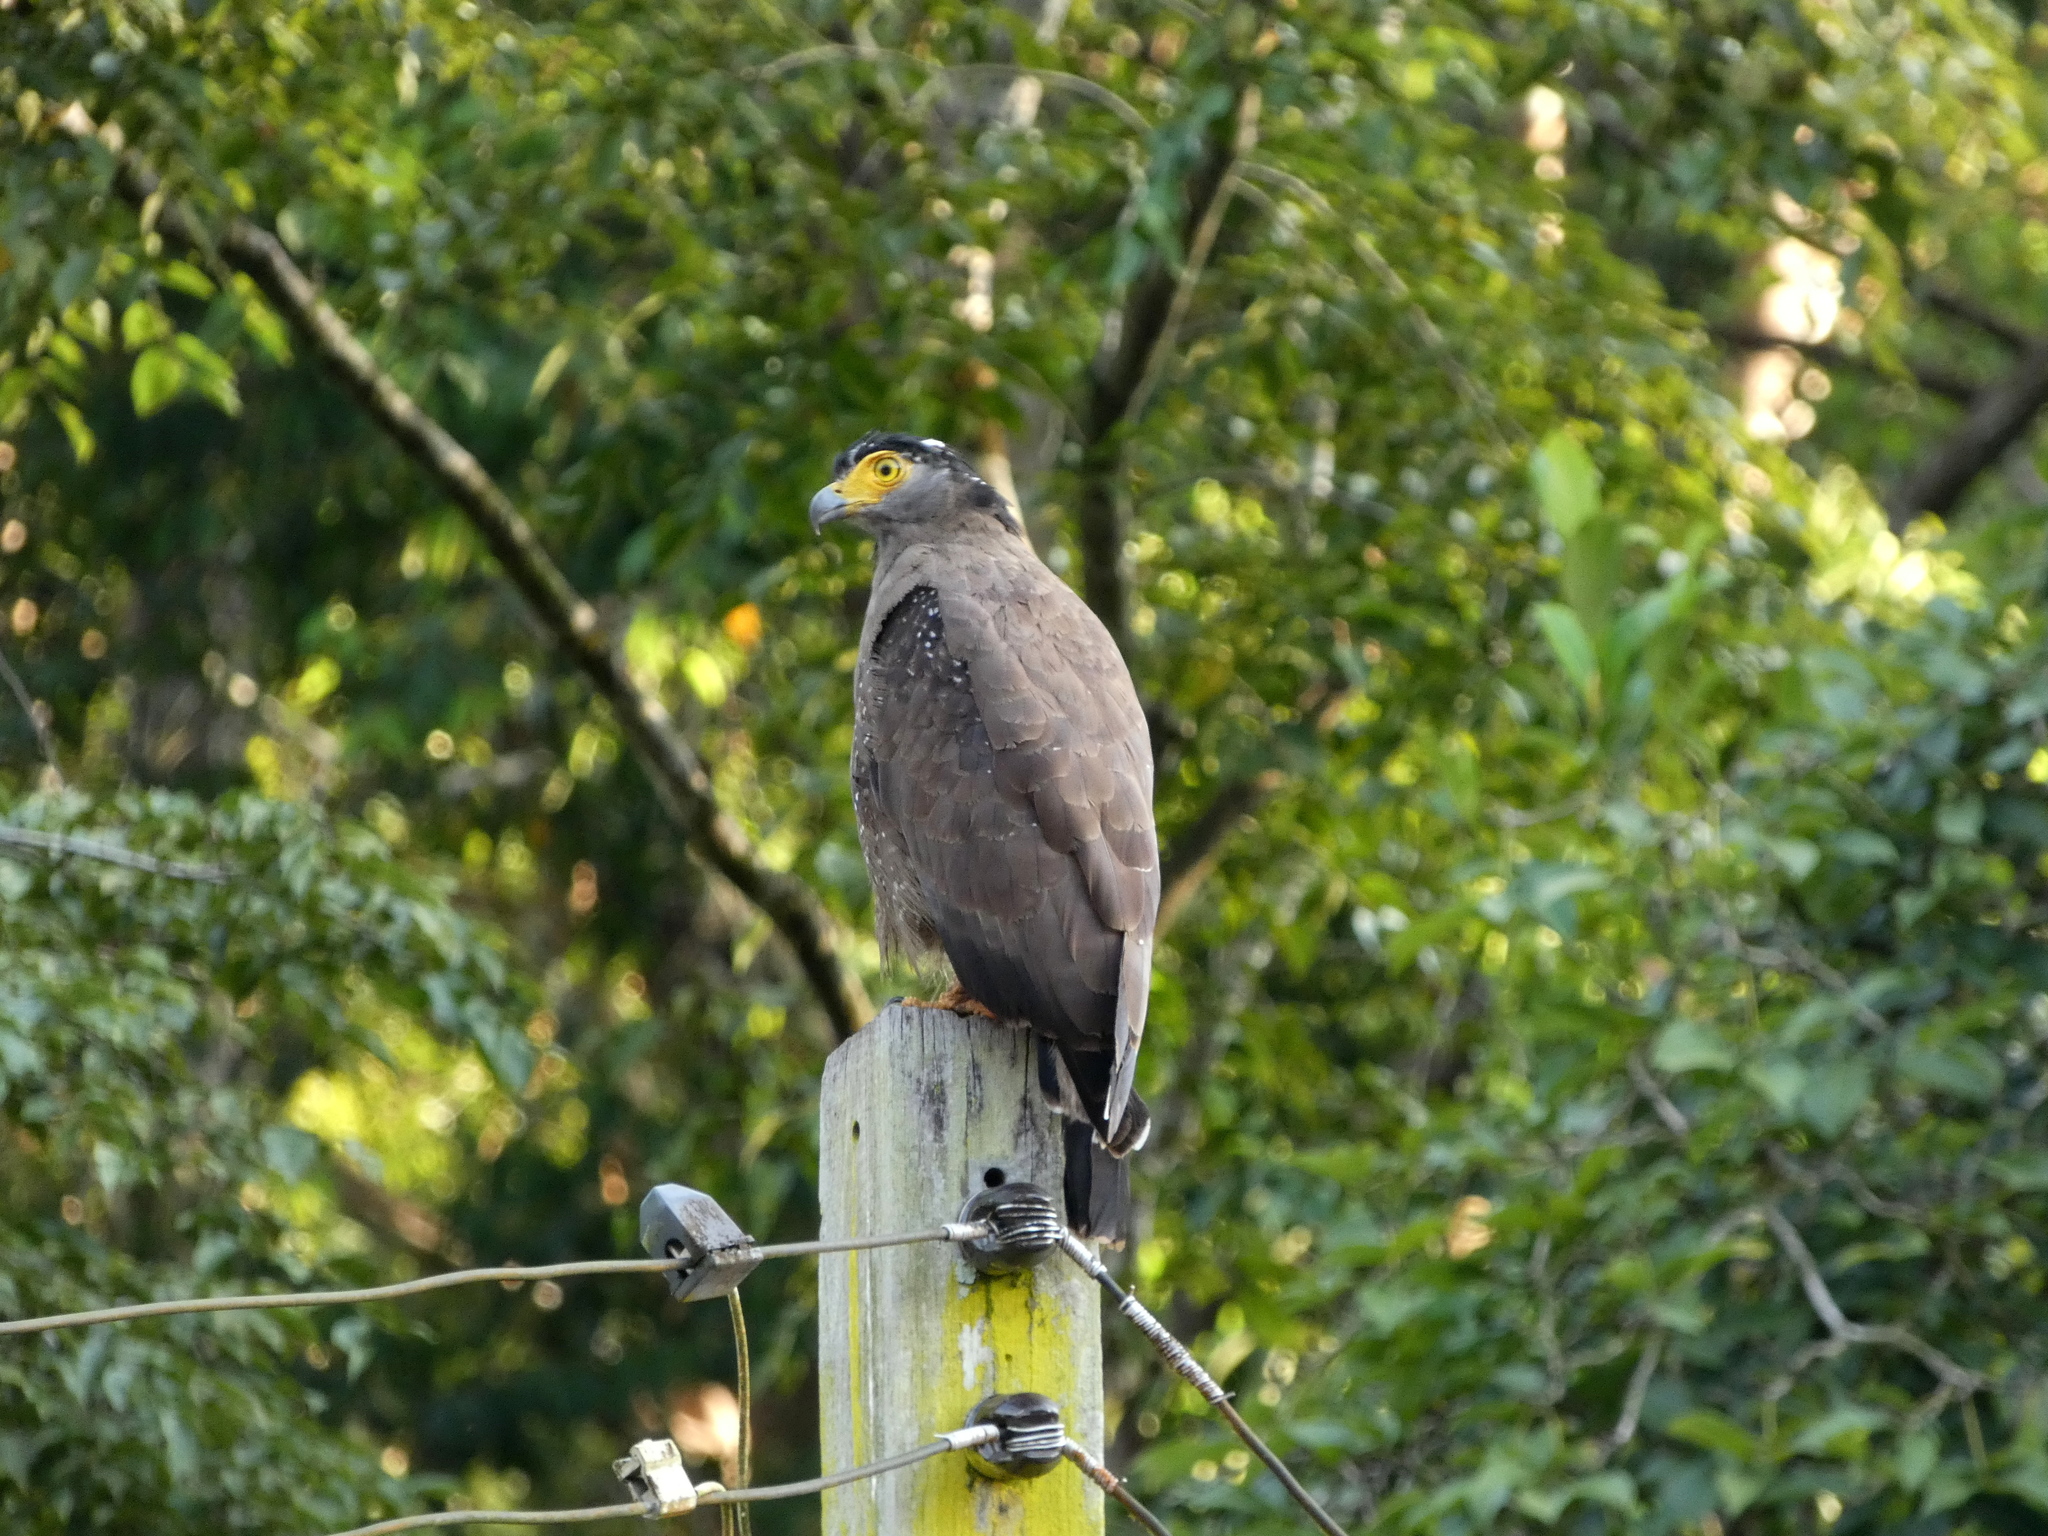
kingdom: Animalia
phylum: Chordata
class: Aves
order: Accipitriformes
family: Accipitridae
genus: Spilornis
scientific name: Spilornis cheela
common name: Crested serpent eagle
